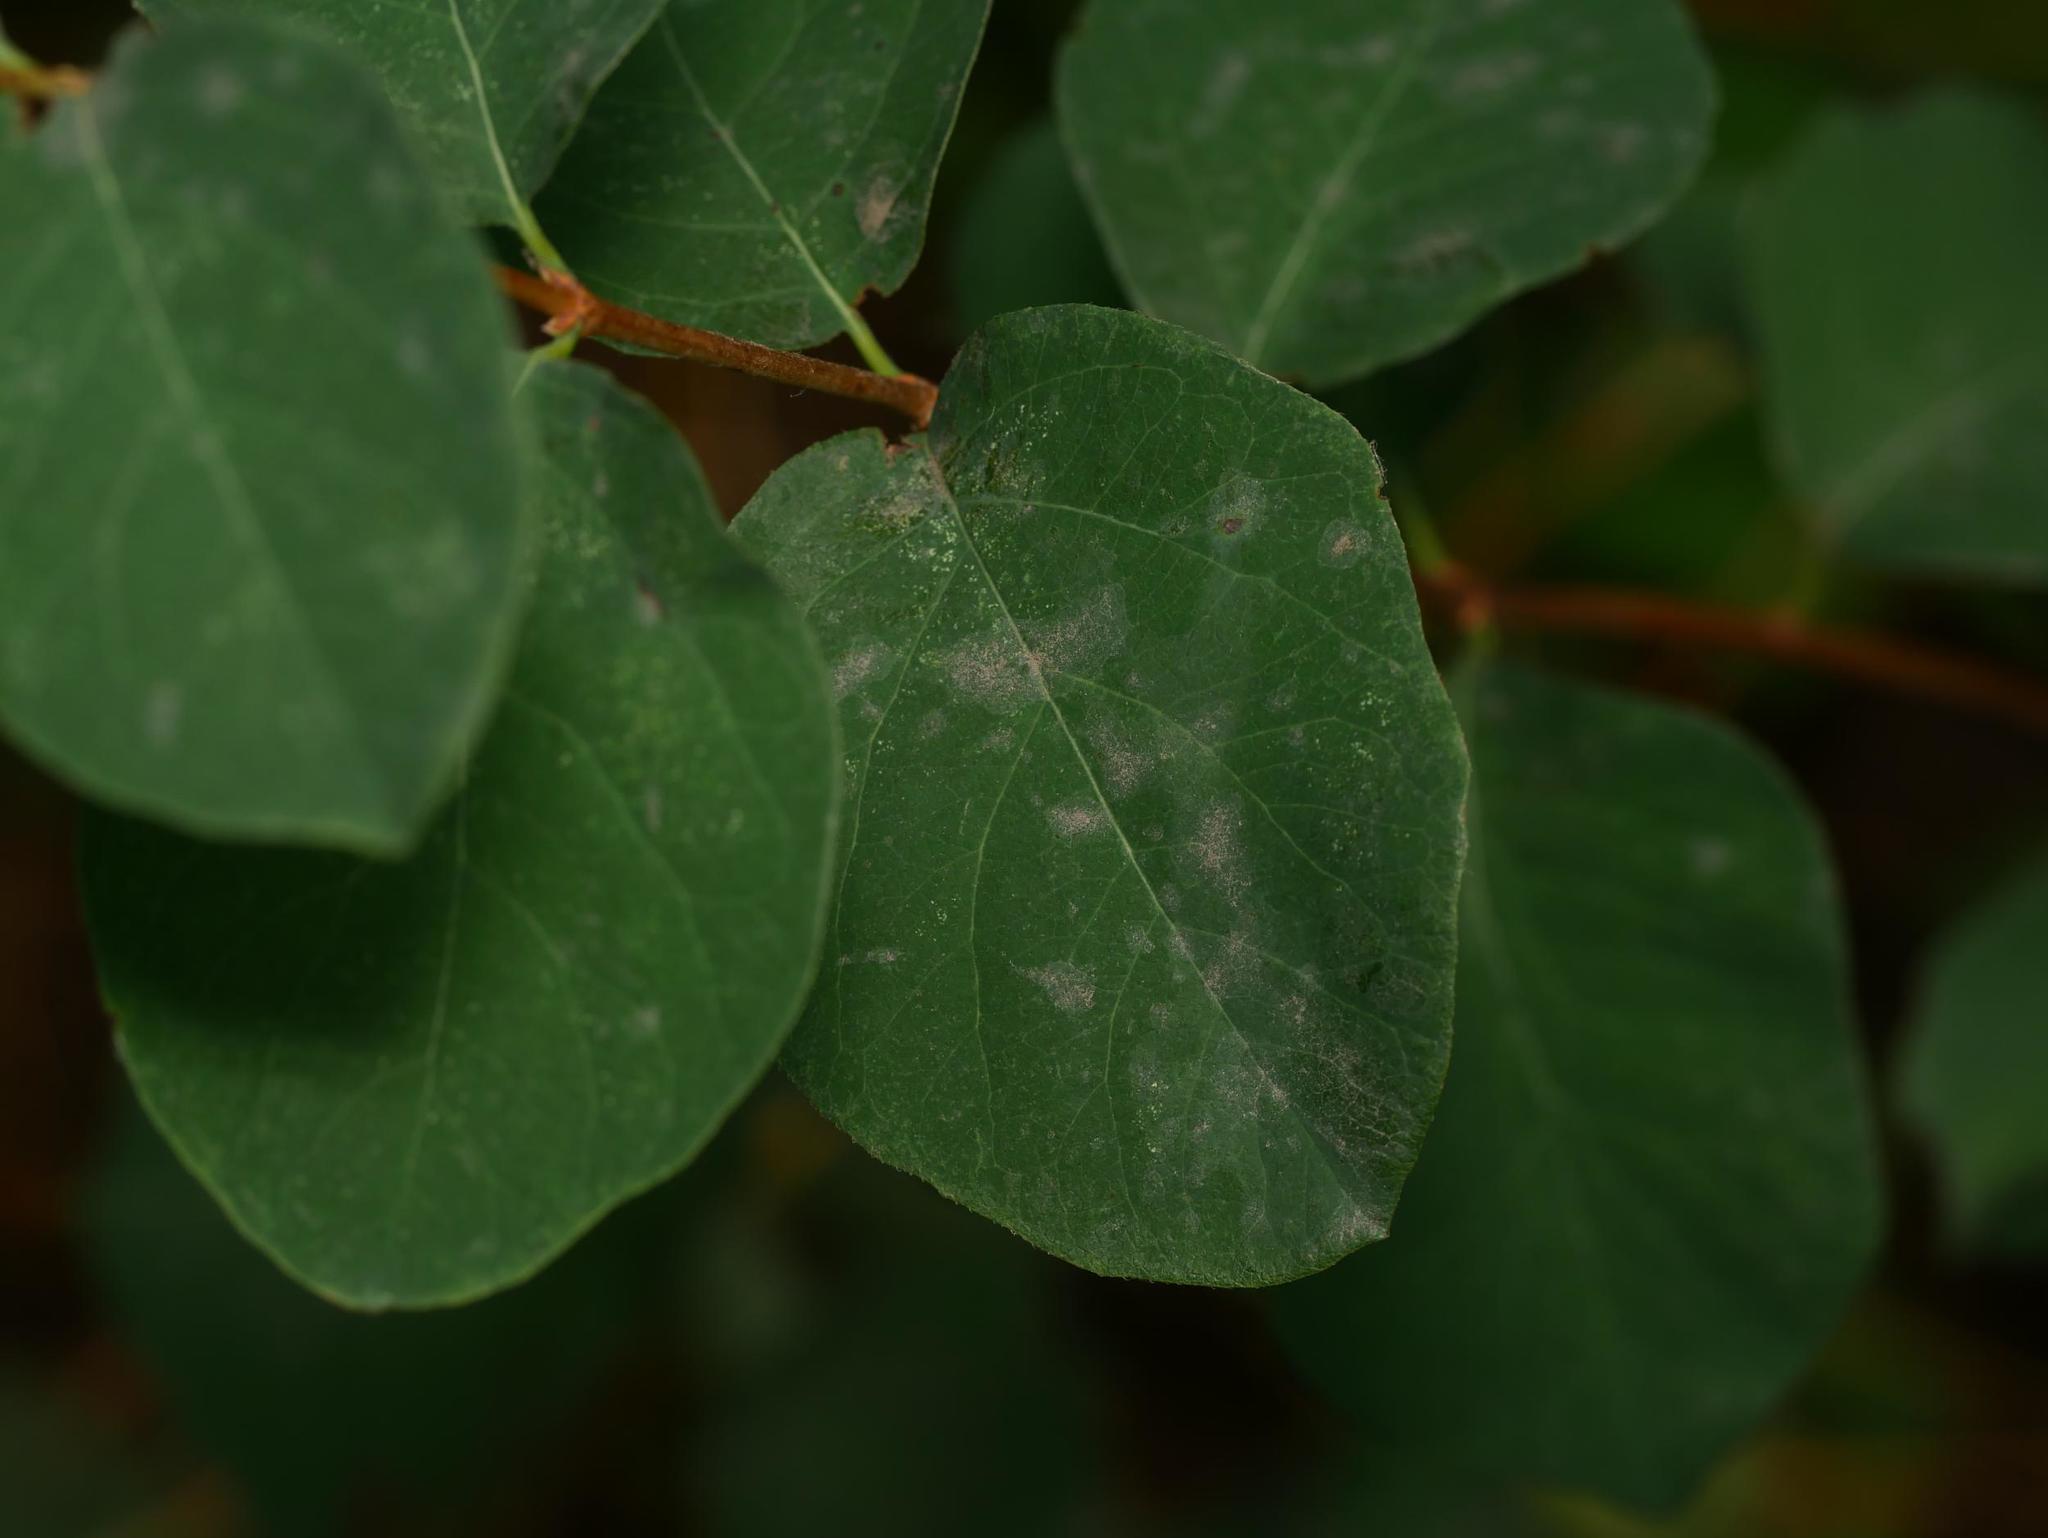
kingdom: Fungi
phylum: Ascomycota
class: Leotiomycetes
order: Helotiales
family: Erysiphaceae
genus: Erysiphe
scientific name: Erysiphe symphoricarpi
